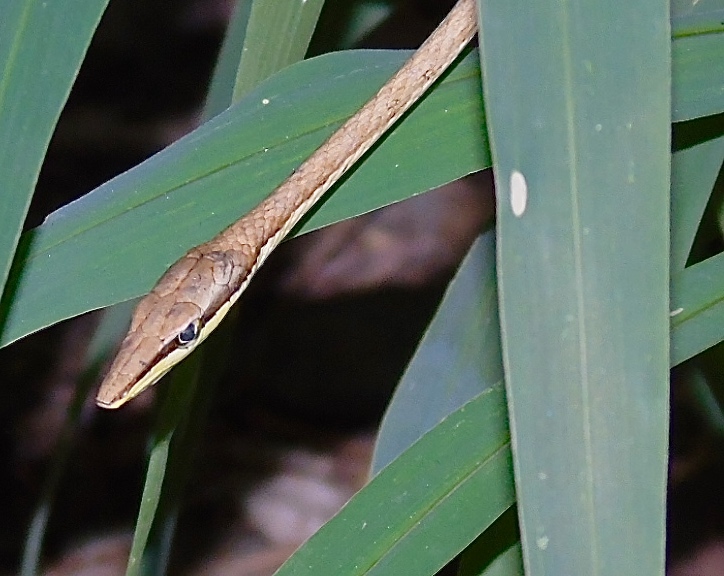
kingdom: Animalia
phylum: Chordata
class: Squamata
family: Colubridae
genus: Oxybelis
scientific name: Oxybelis microphthalmus
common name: Thrornscrub vine snake
